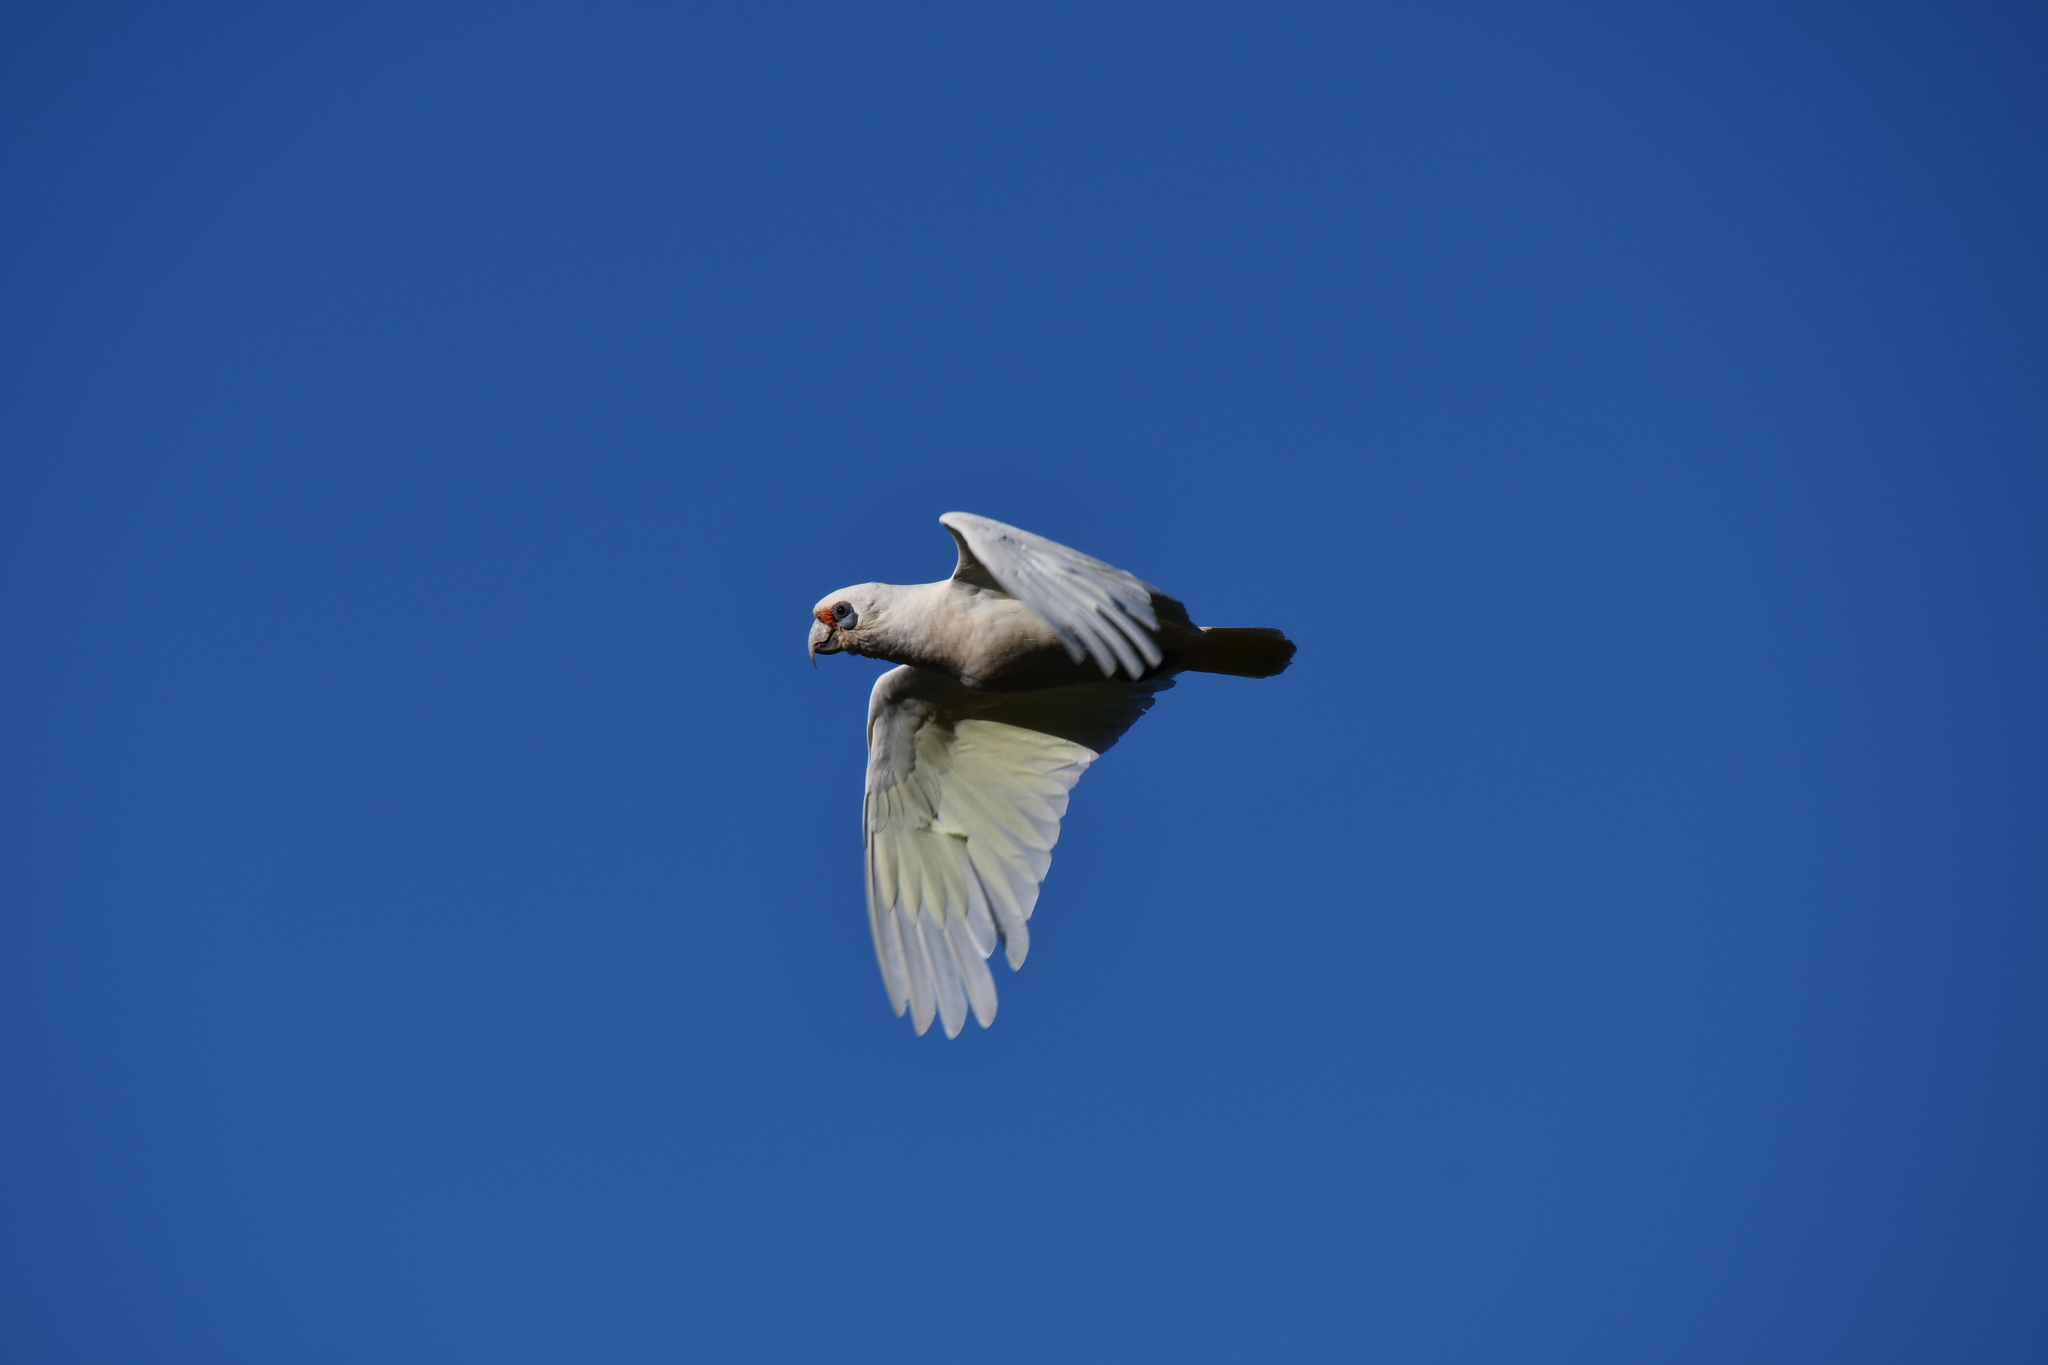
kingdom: Animalia
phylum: Chordata
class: Aves
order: Psittaciformes
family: Psittacidae
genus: Cacatua
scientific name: Cacatua pastinator
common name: Western corella
